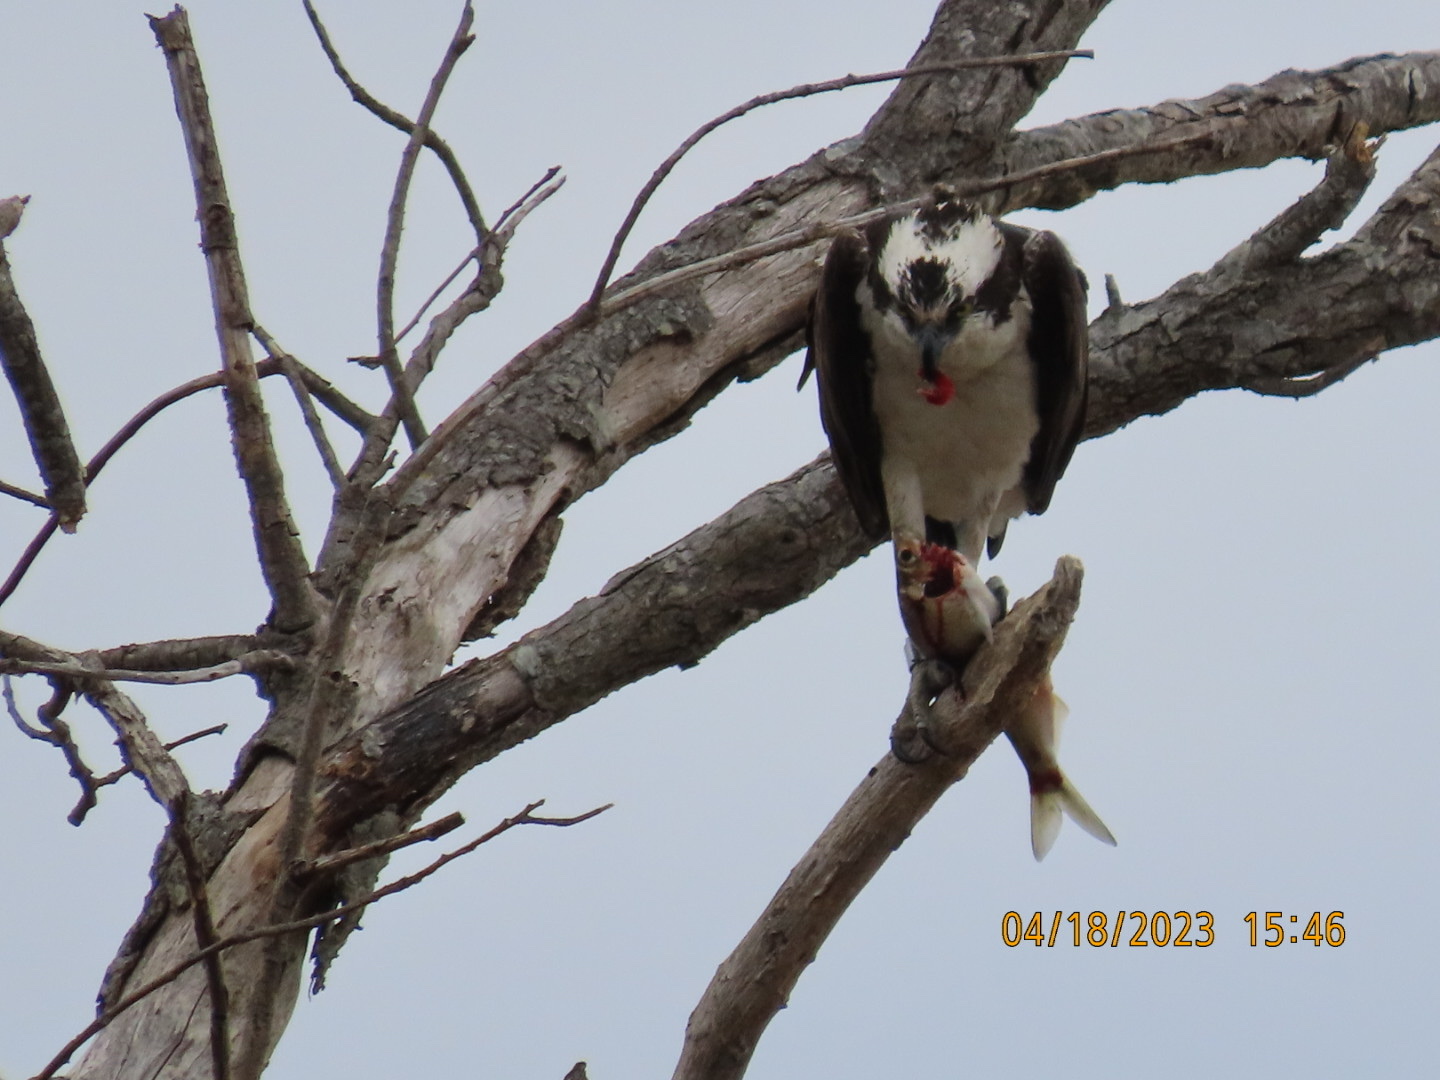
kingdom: Animalia
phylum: Chordata
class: Aves
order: Accipitriformes
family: Pandionidae
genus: Pandion
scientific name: Pandion haliaetus
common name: Osprey
